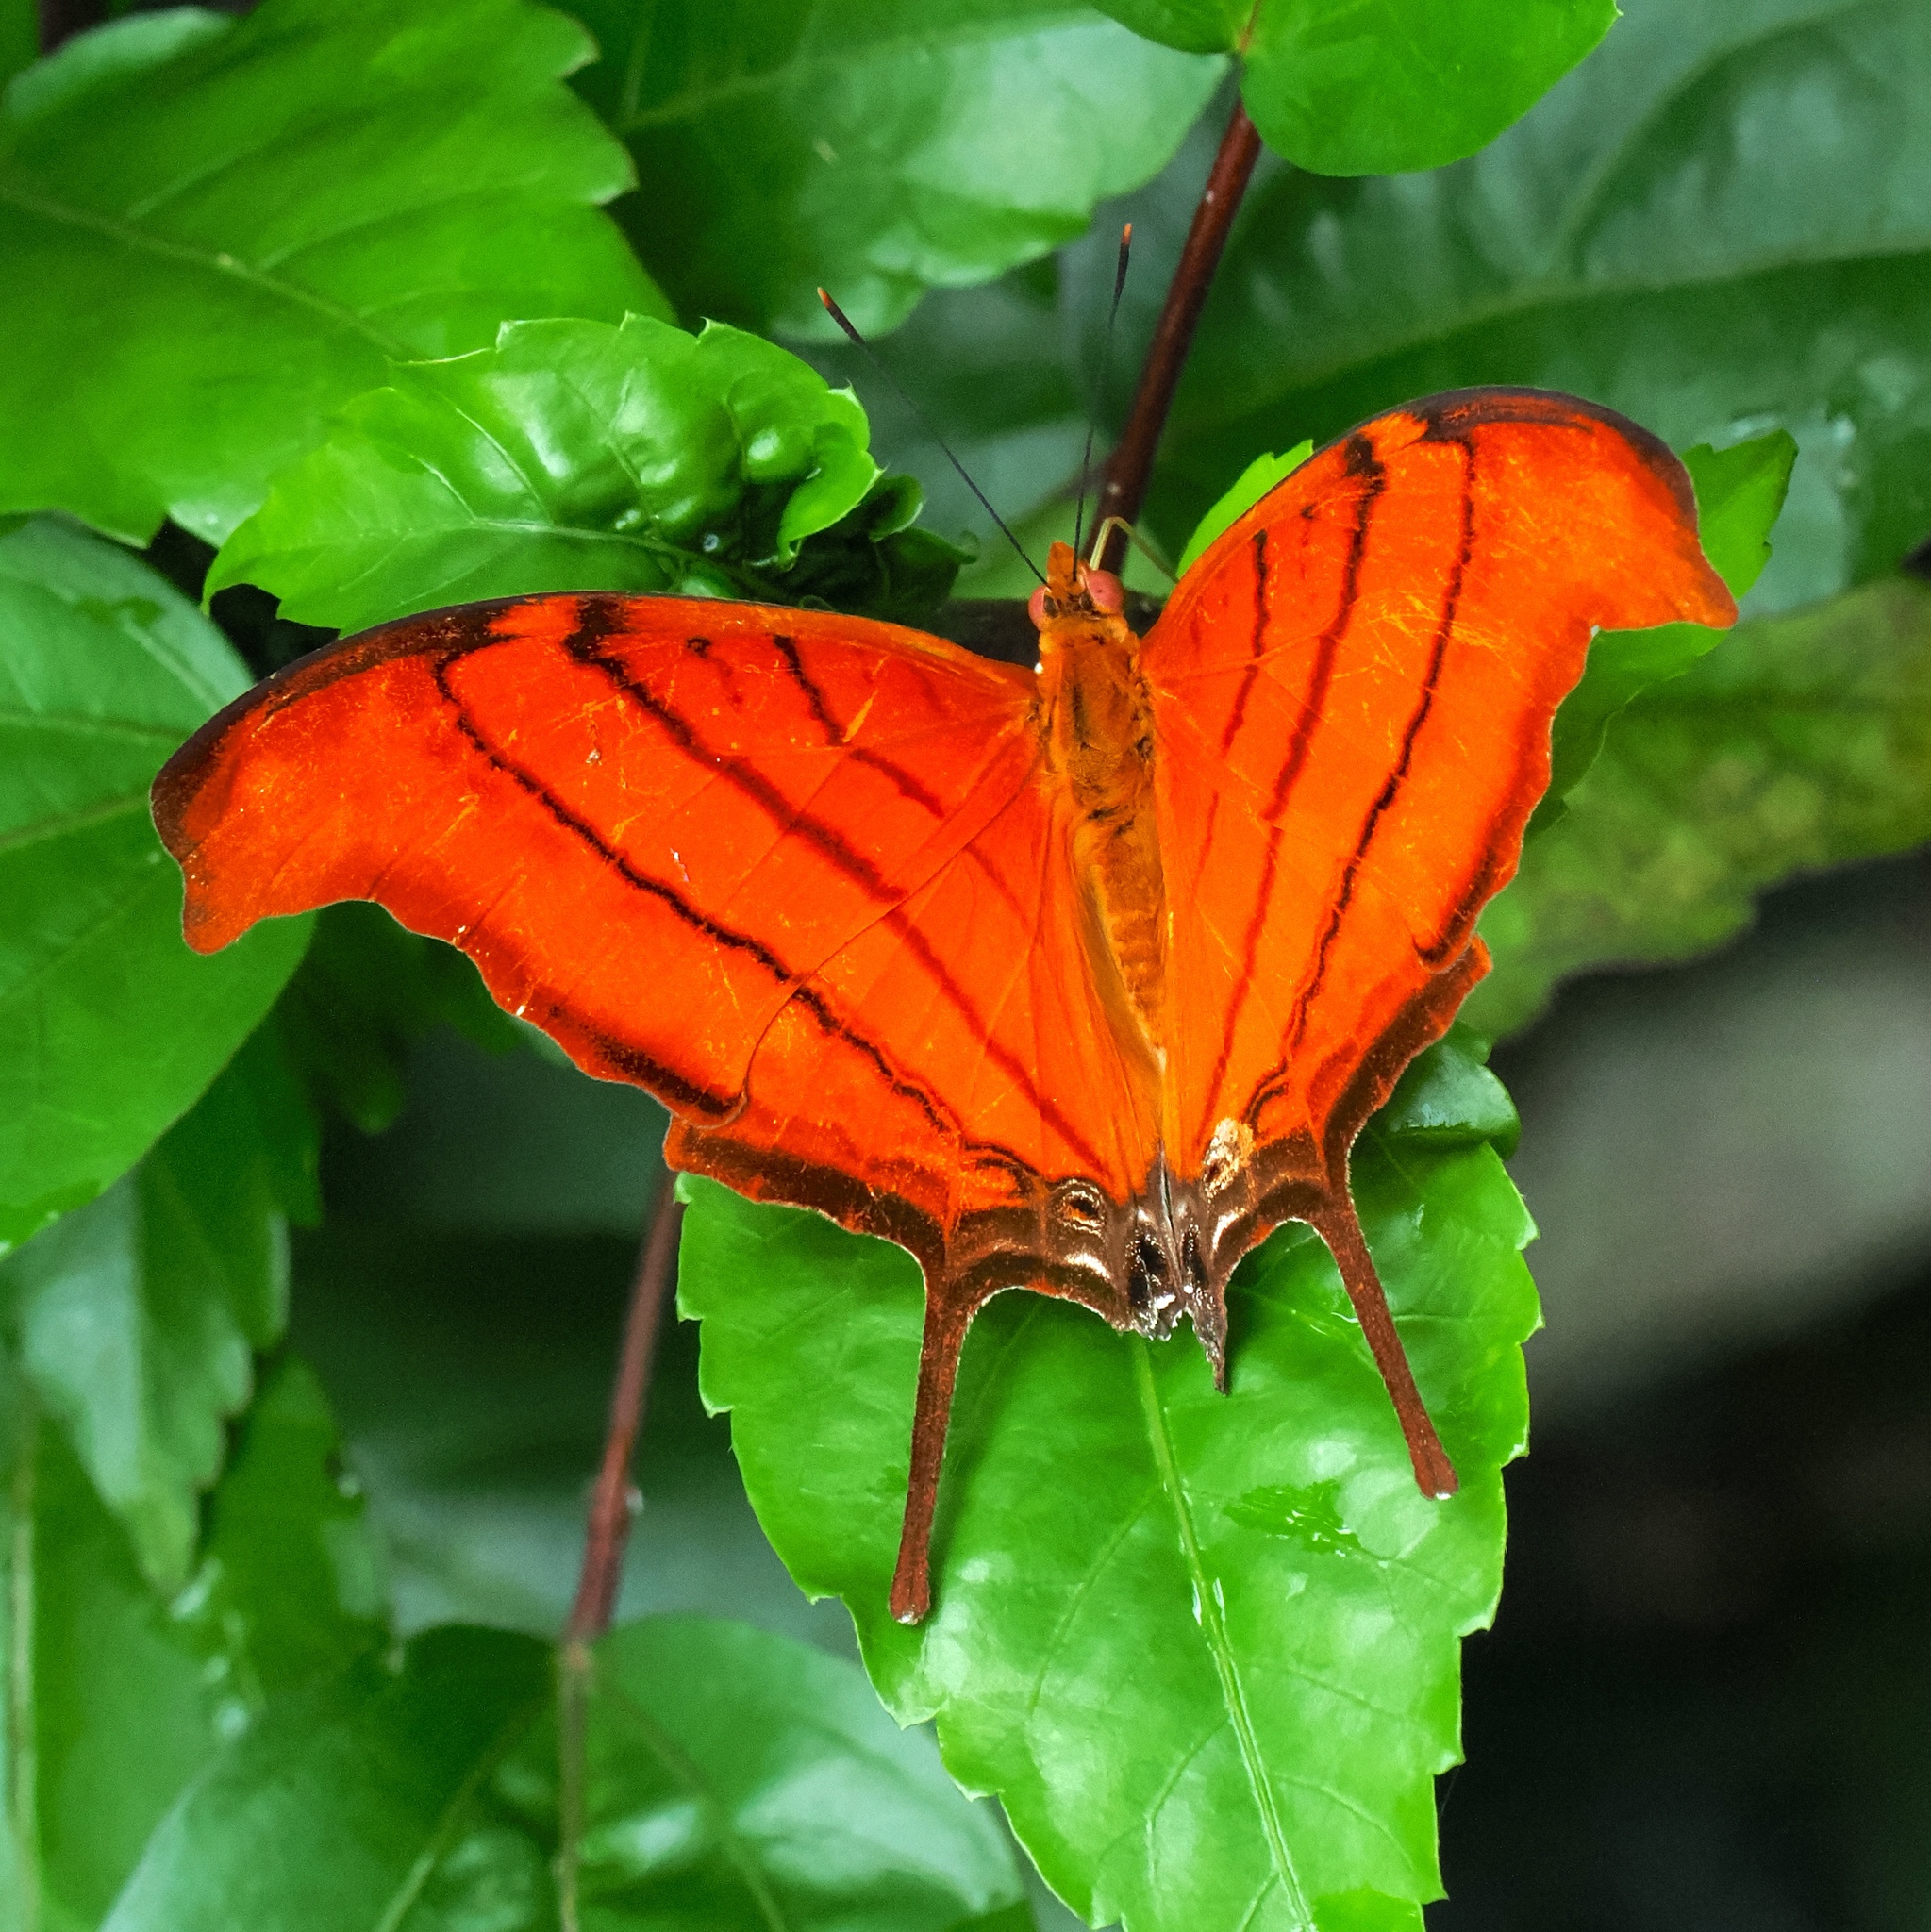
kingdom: Animalia
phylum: Arthropoda
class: Insecta
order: Lepidoptera
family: Nymphalidae
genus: Marpesia
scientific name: Marpesia petreus
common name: Red dagger wing
